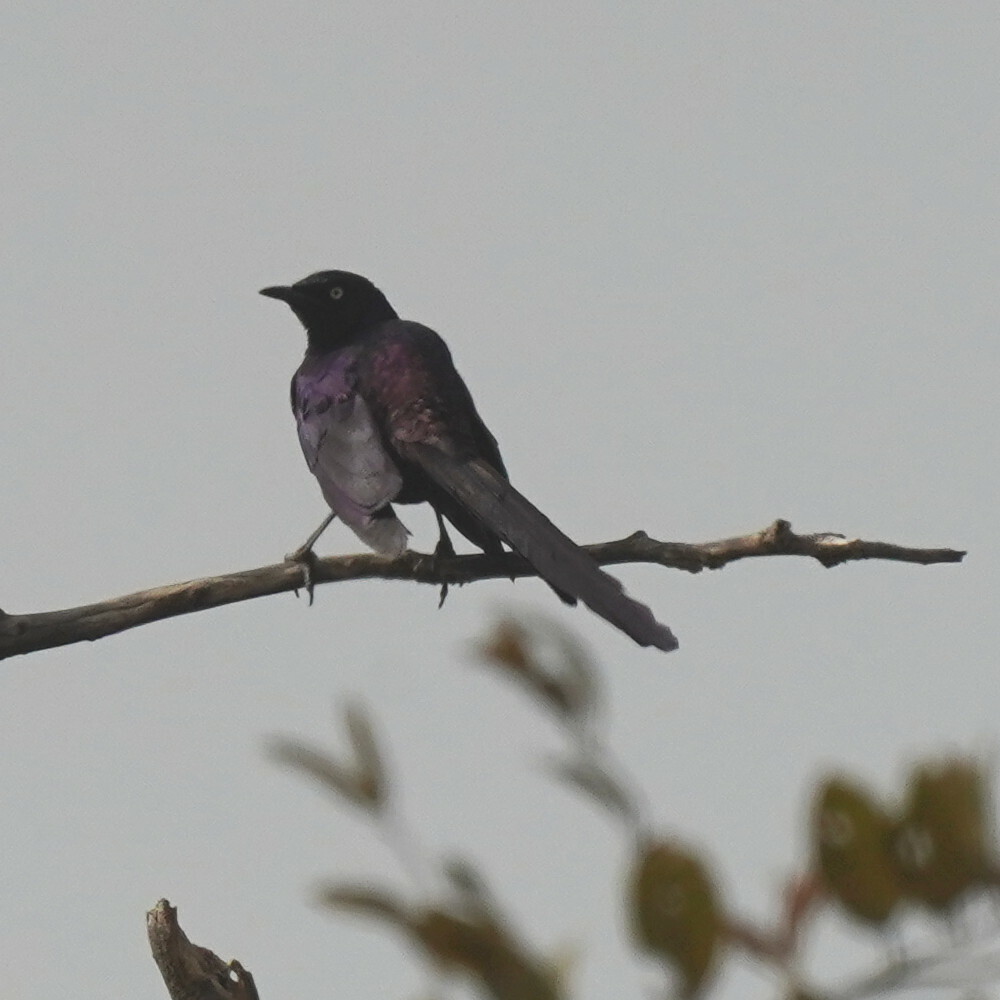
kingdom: Animalia
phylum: Chordata
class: Aves
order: Passeriformes
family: Sturnidae
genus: Lamprotornis
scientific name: Lamprotornis caudatus
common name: Long-tailed glossy starling
